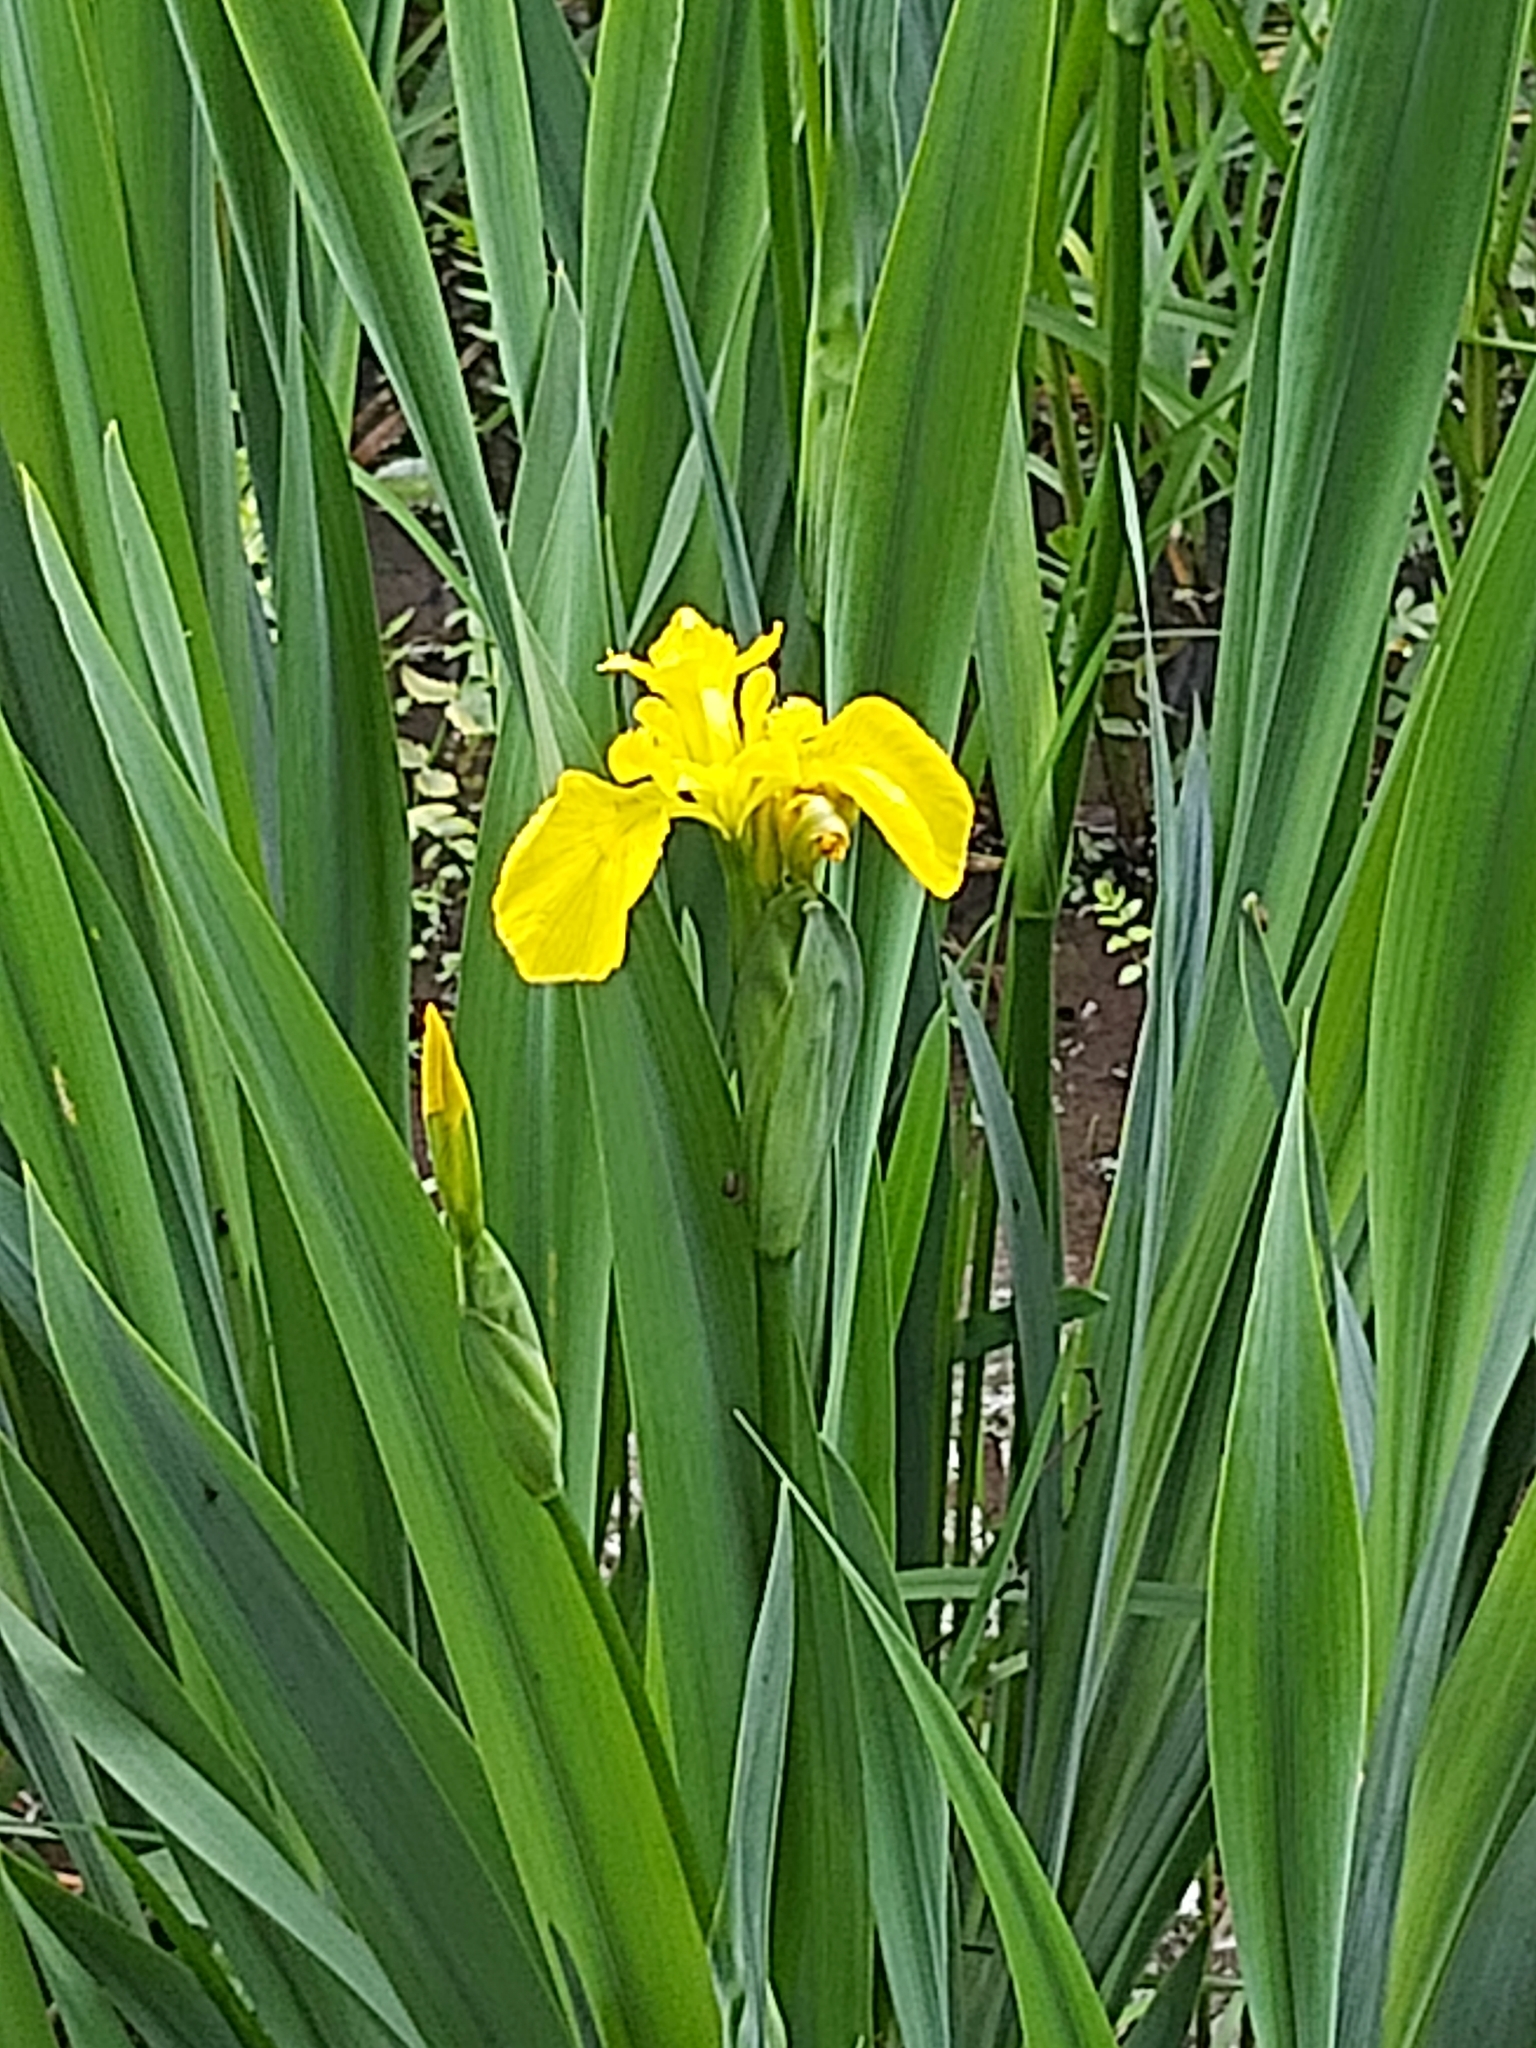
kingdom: Plantae
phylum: Tracheophyta
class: Liliopsida
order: Asparagales
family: Iridaceae
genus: Iris
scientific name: Iris pseudacorus
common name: Yellow flag
